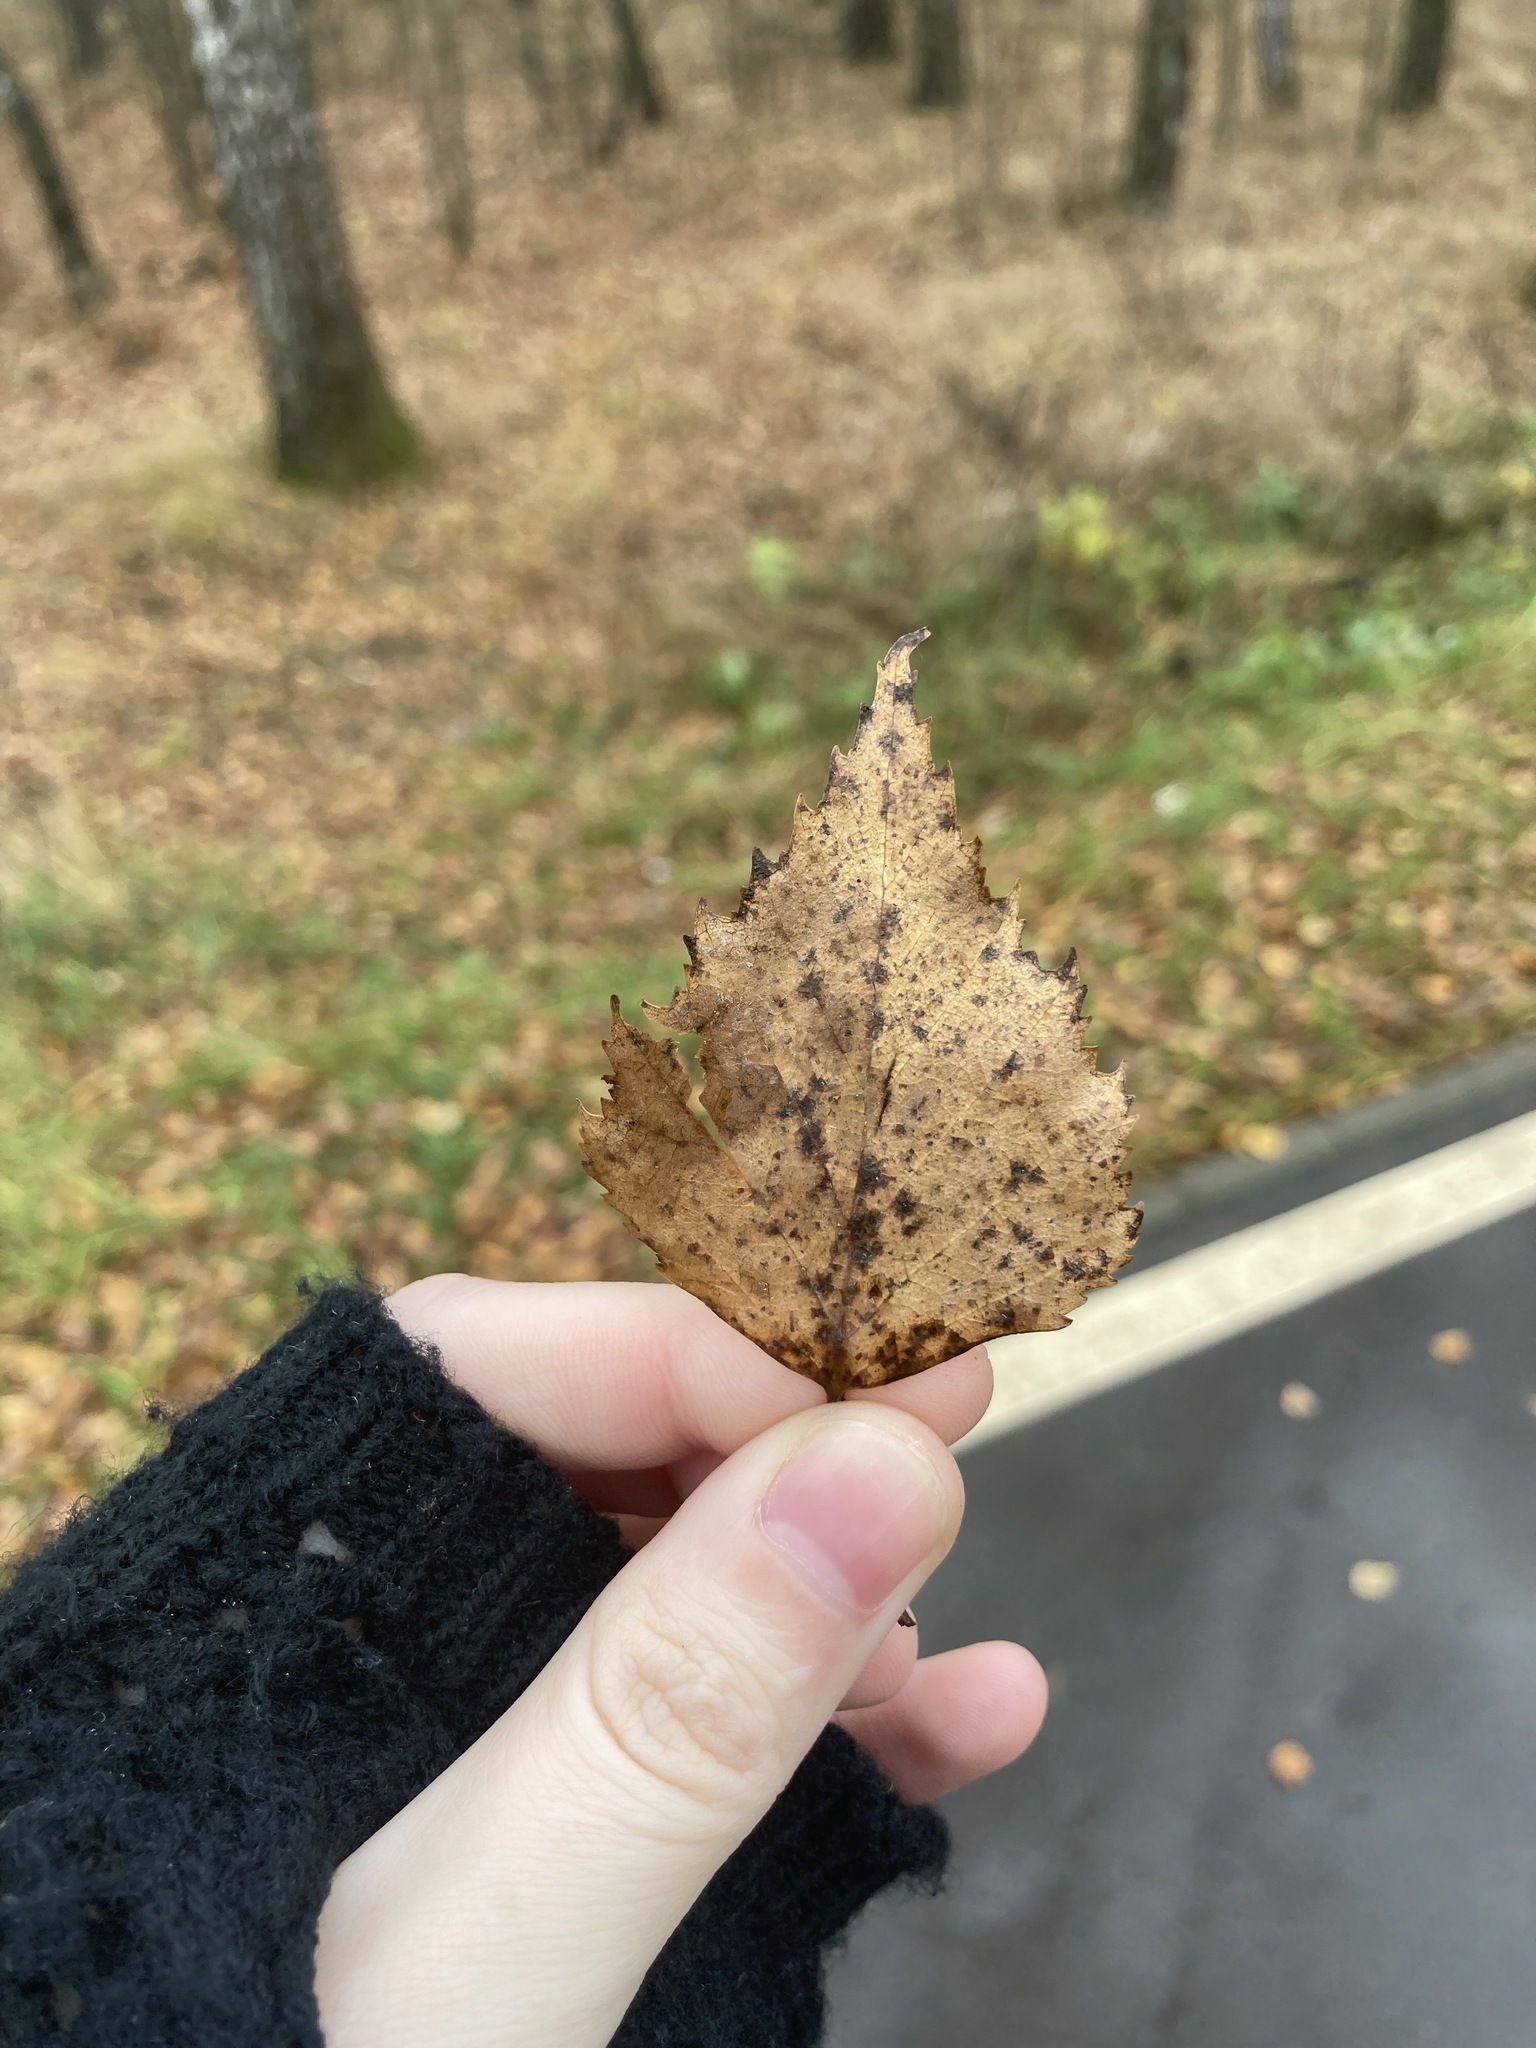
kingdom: Plantae
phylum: Tracheophyta
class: Magnoliopsida
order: Fagales
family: Betulaceae
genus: Betula
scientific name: Betula pendula
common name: Silver birch
